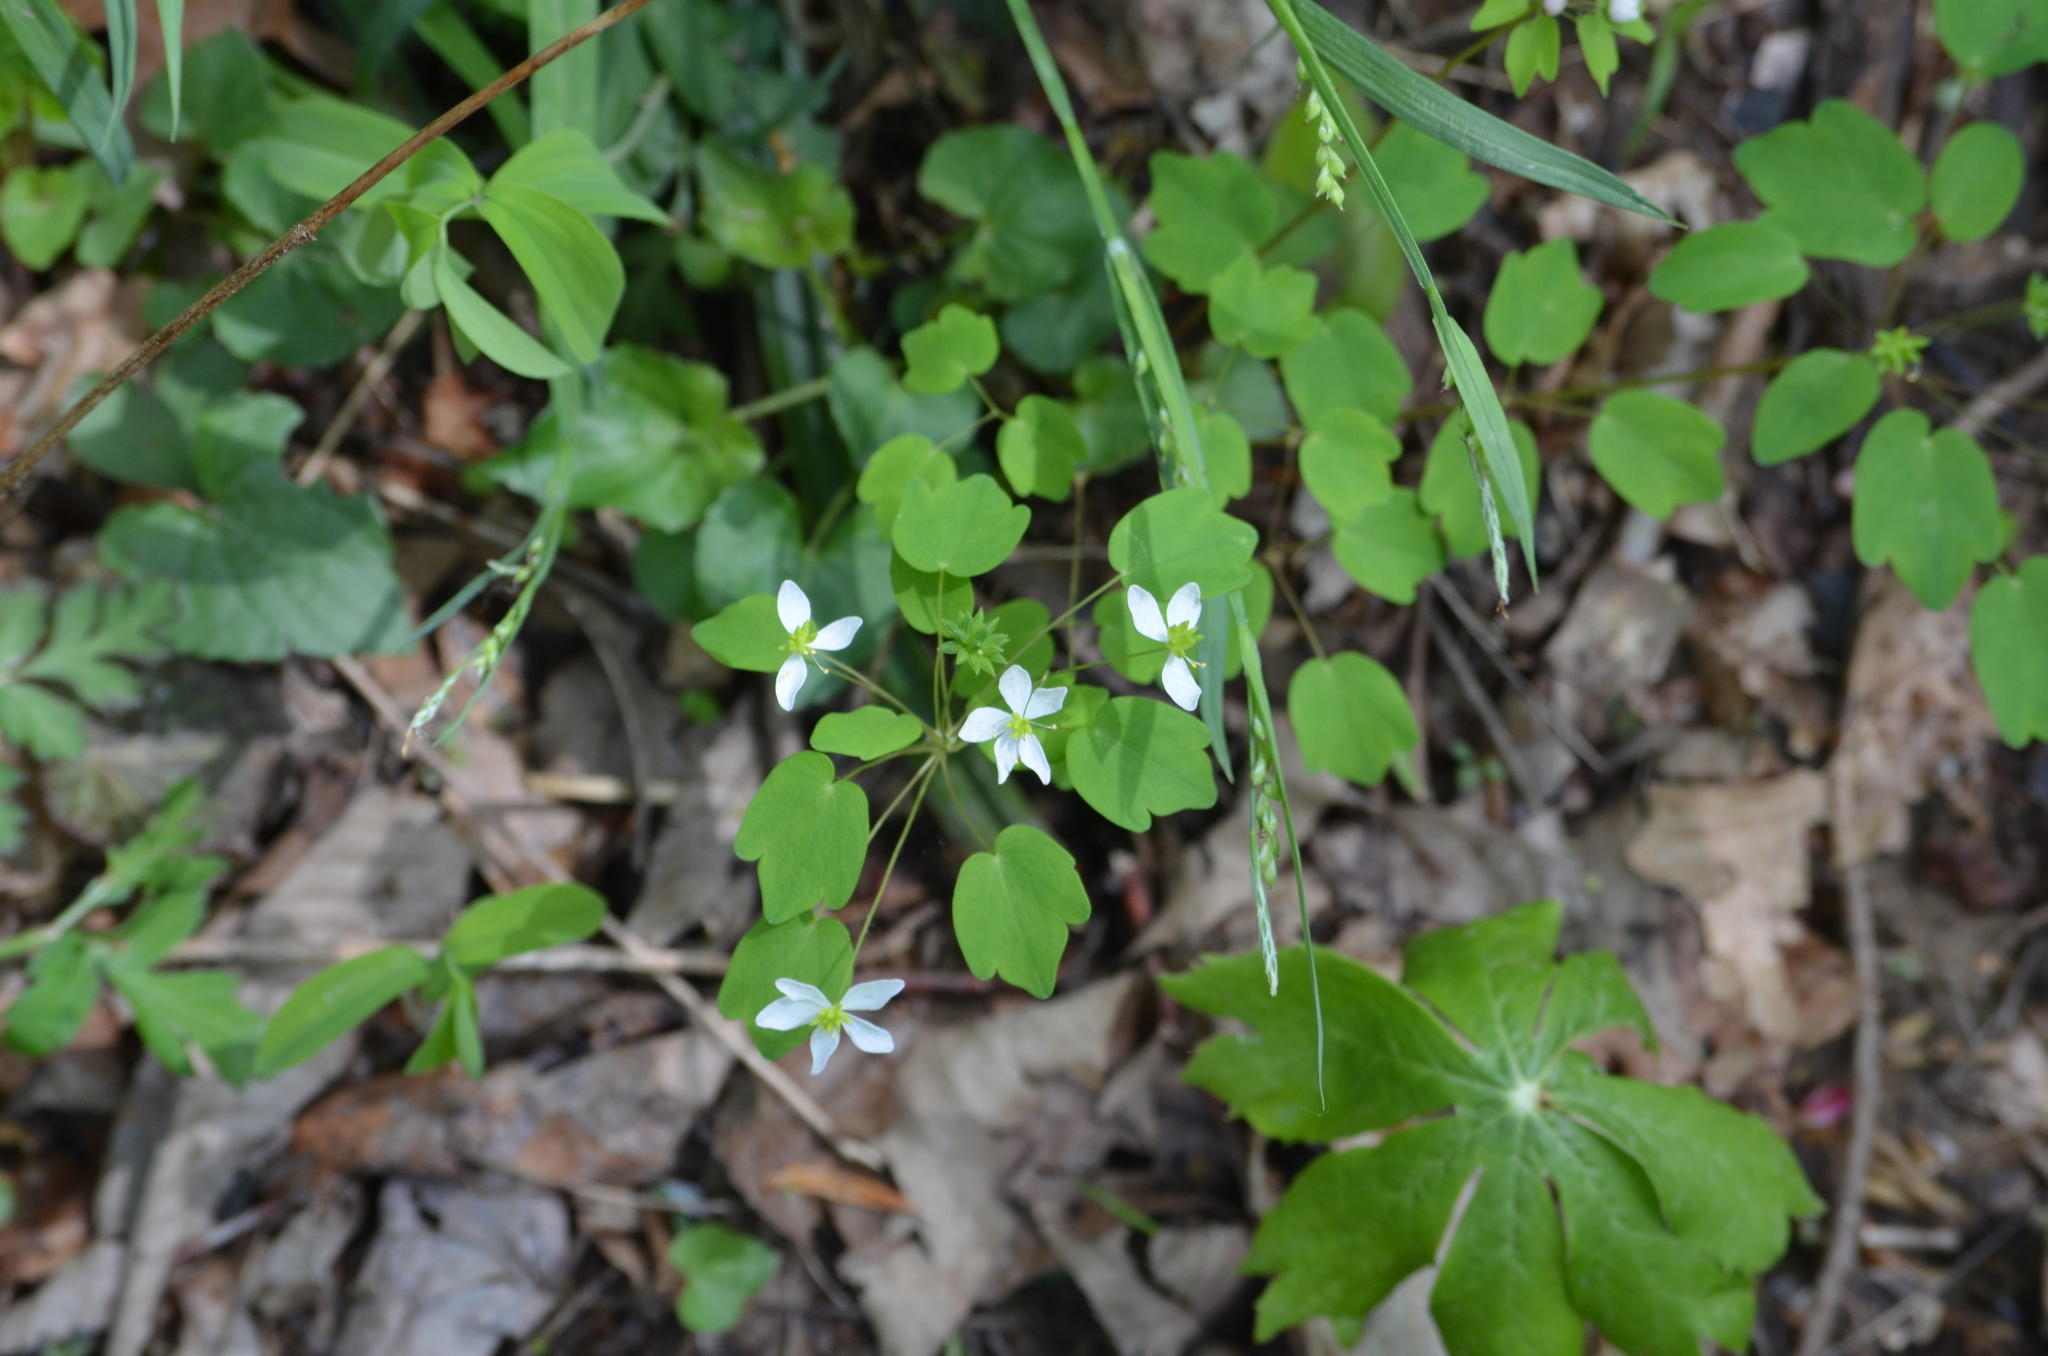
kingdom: Plantae
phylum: Tracheophyta
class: Magnoliopsida
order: Ranunculales
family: Ranunculaceae
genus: Thalictrum
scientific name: Thalictrum thalictroides
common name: Rue-anemone
